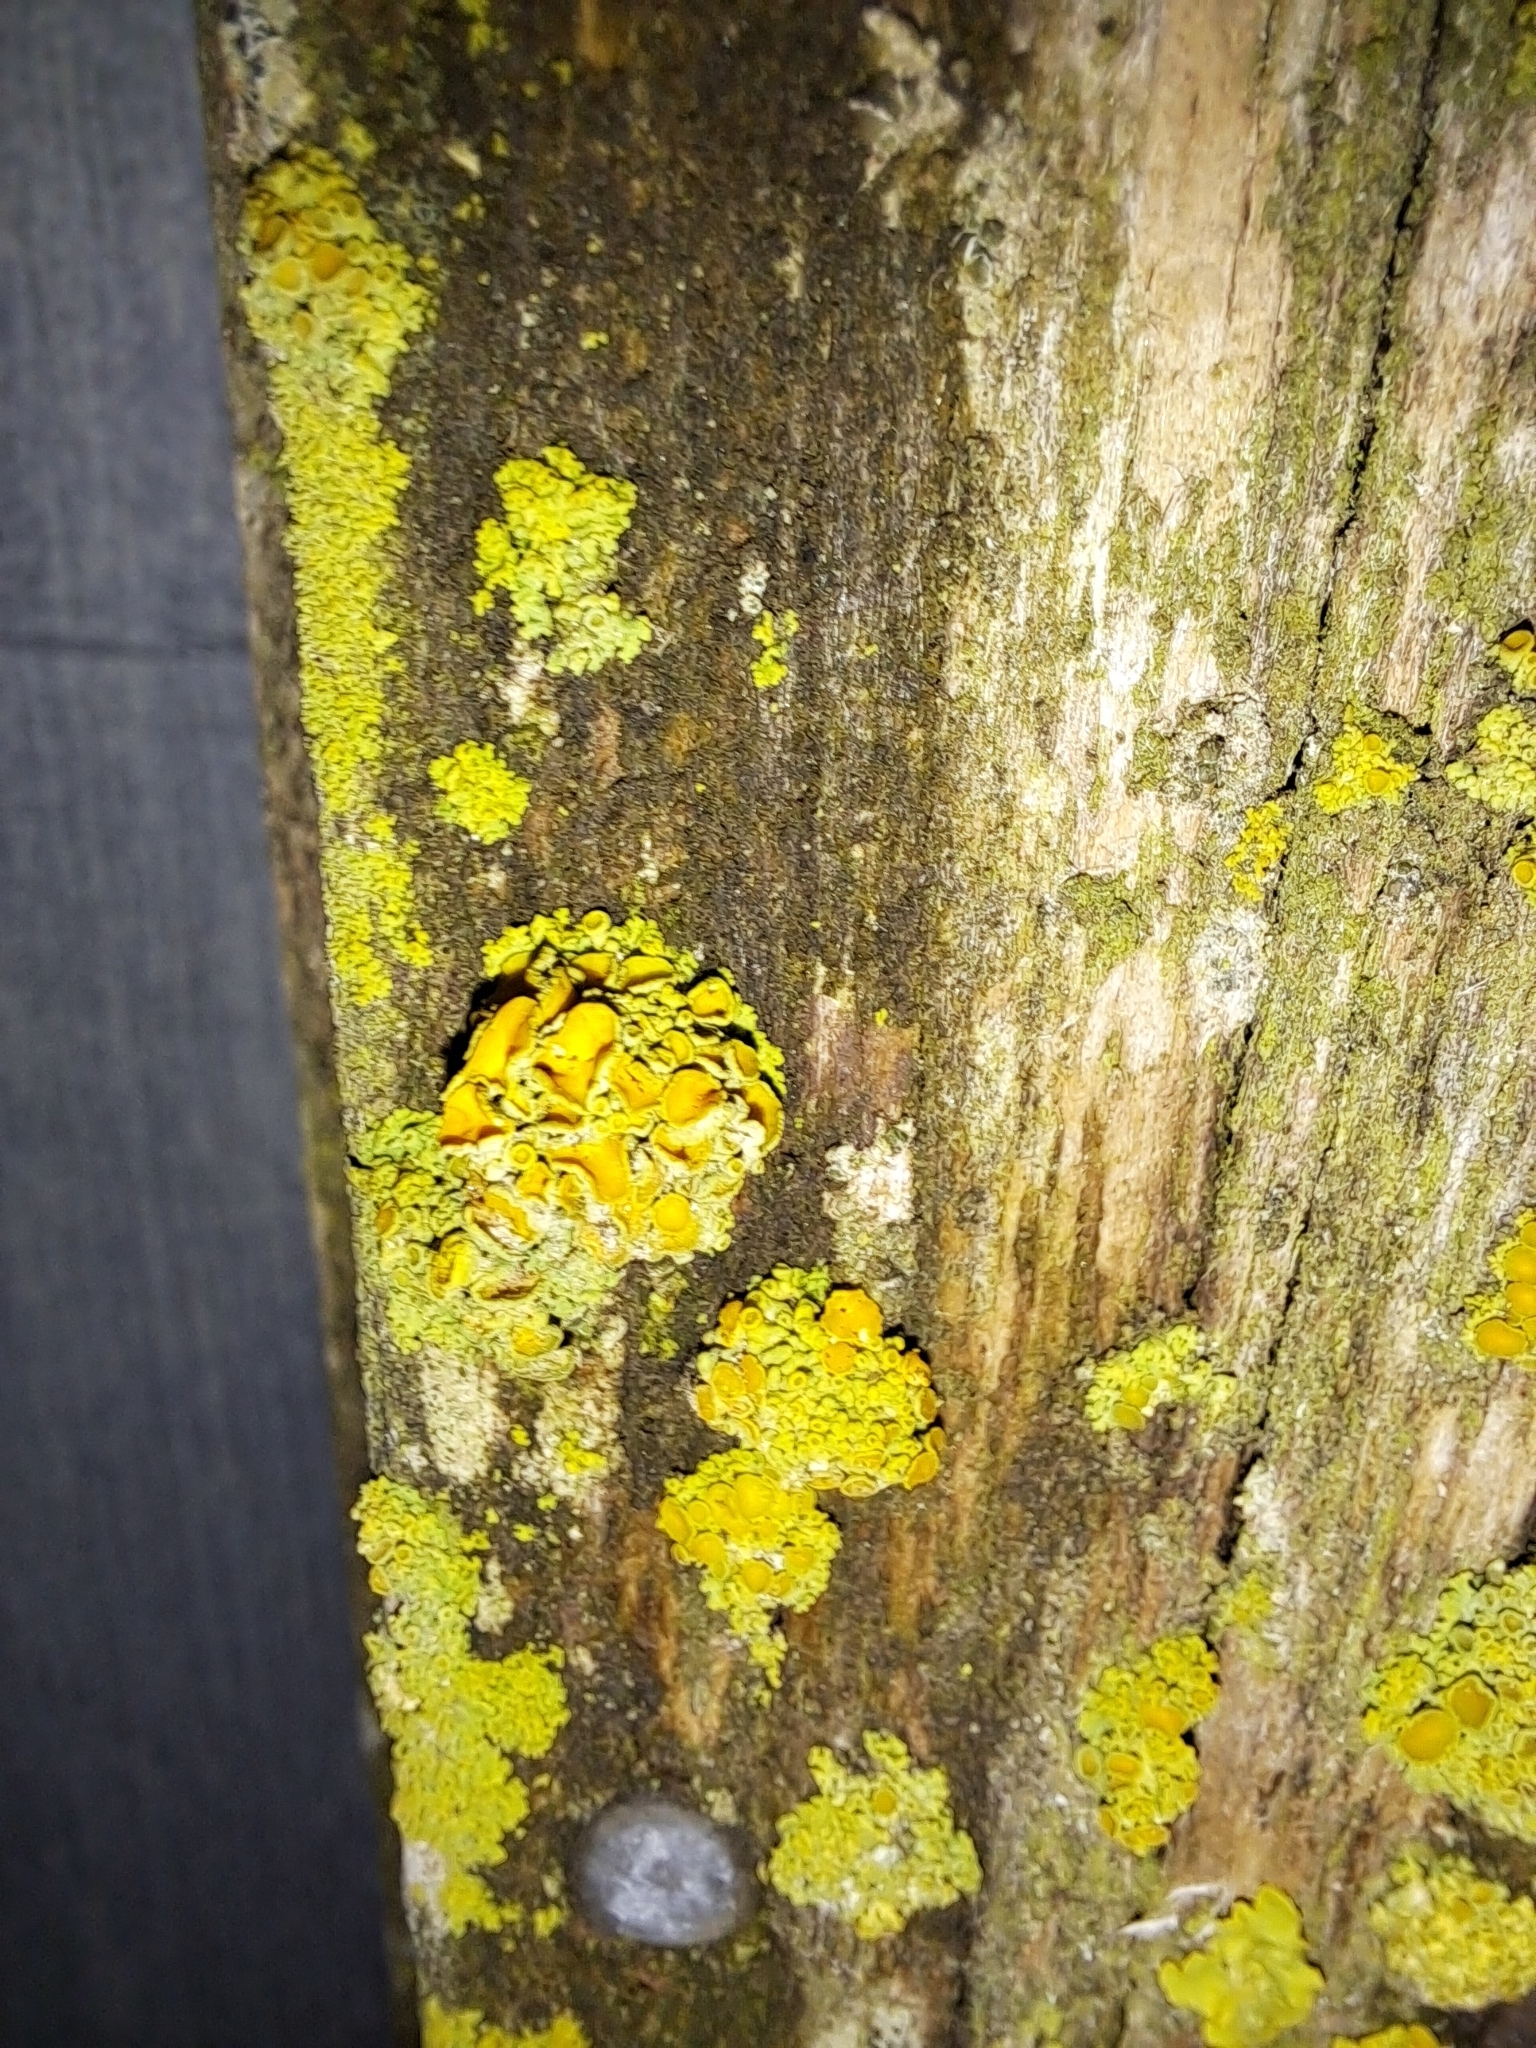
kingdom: Fungi
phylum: Ascomycota
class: Lecanoromycetes
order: Teloschistales
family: Teloschistaceae
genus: Polycauliona
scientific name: Polycauliona polycarpa
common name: Pin-cushion sunburst lichen
